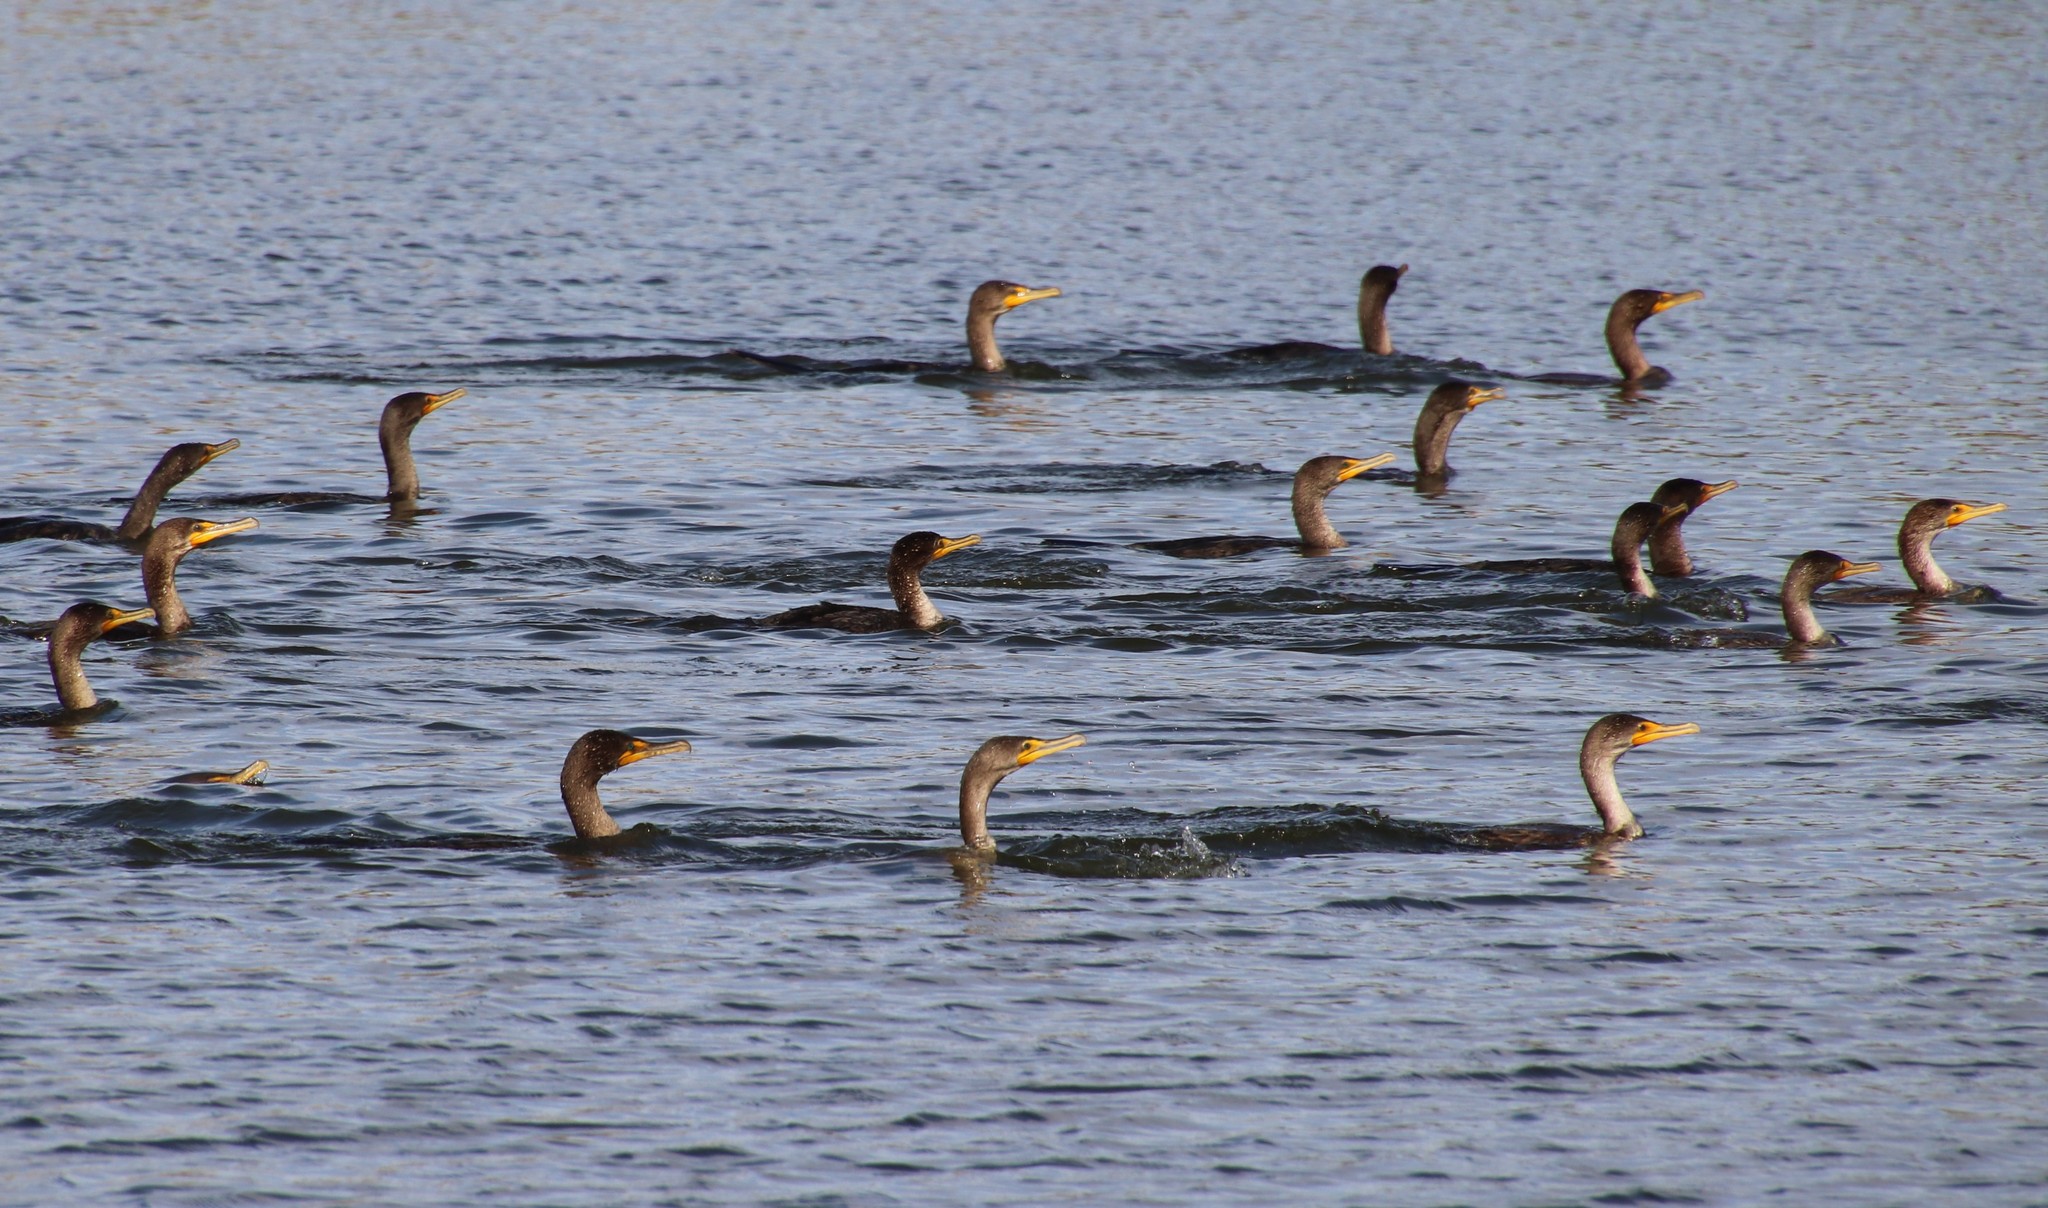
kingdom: Animalia
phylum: Chordata
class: Aves
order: Suliformes
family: Phalacrocoracidae
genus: Phalacrocorax
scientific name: Phalacrocorax auritus
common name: Double-crested cormorant
